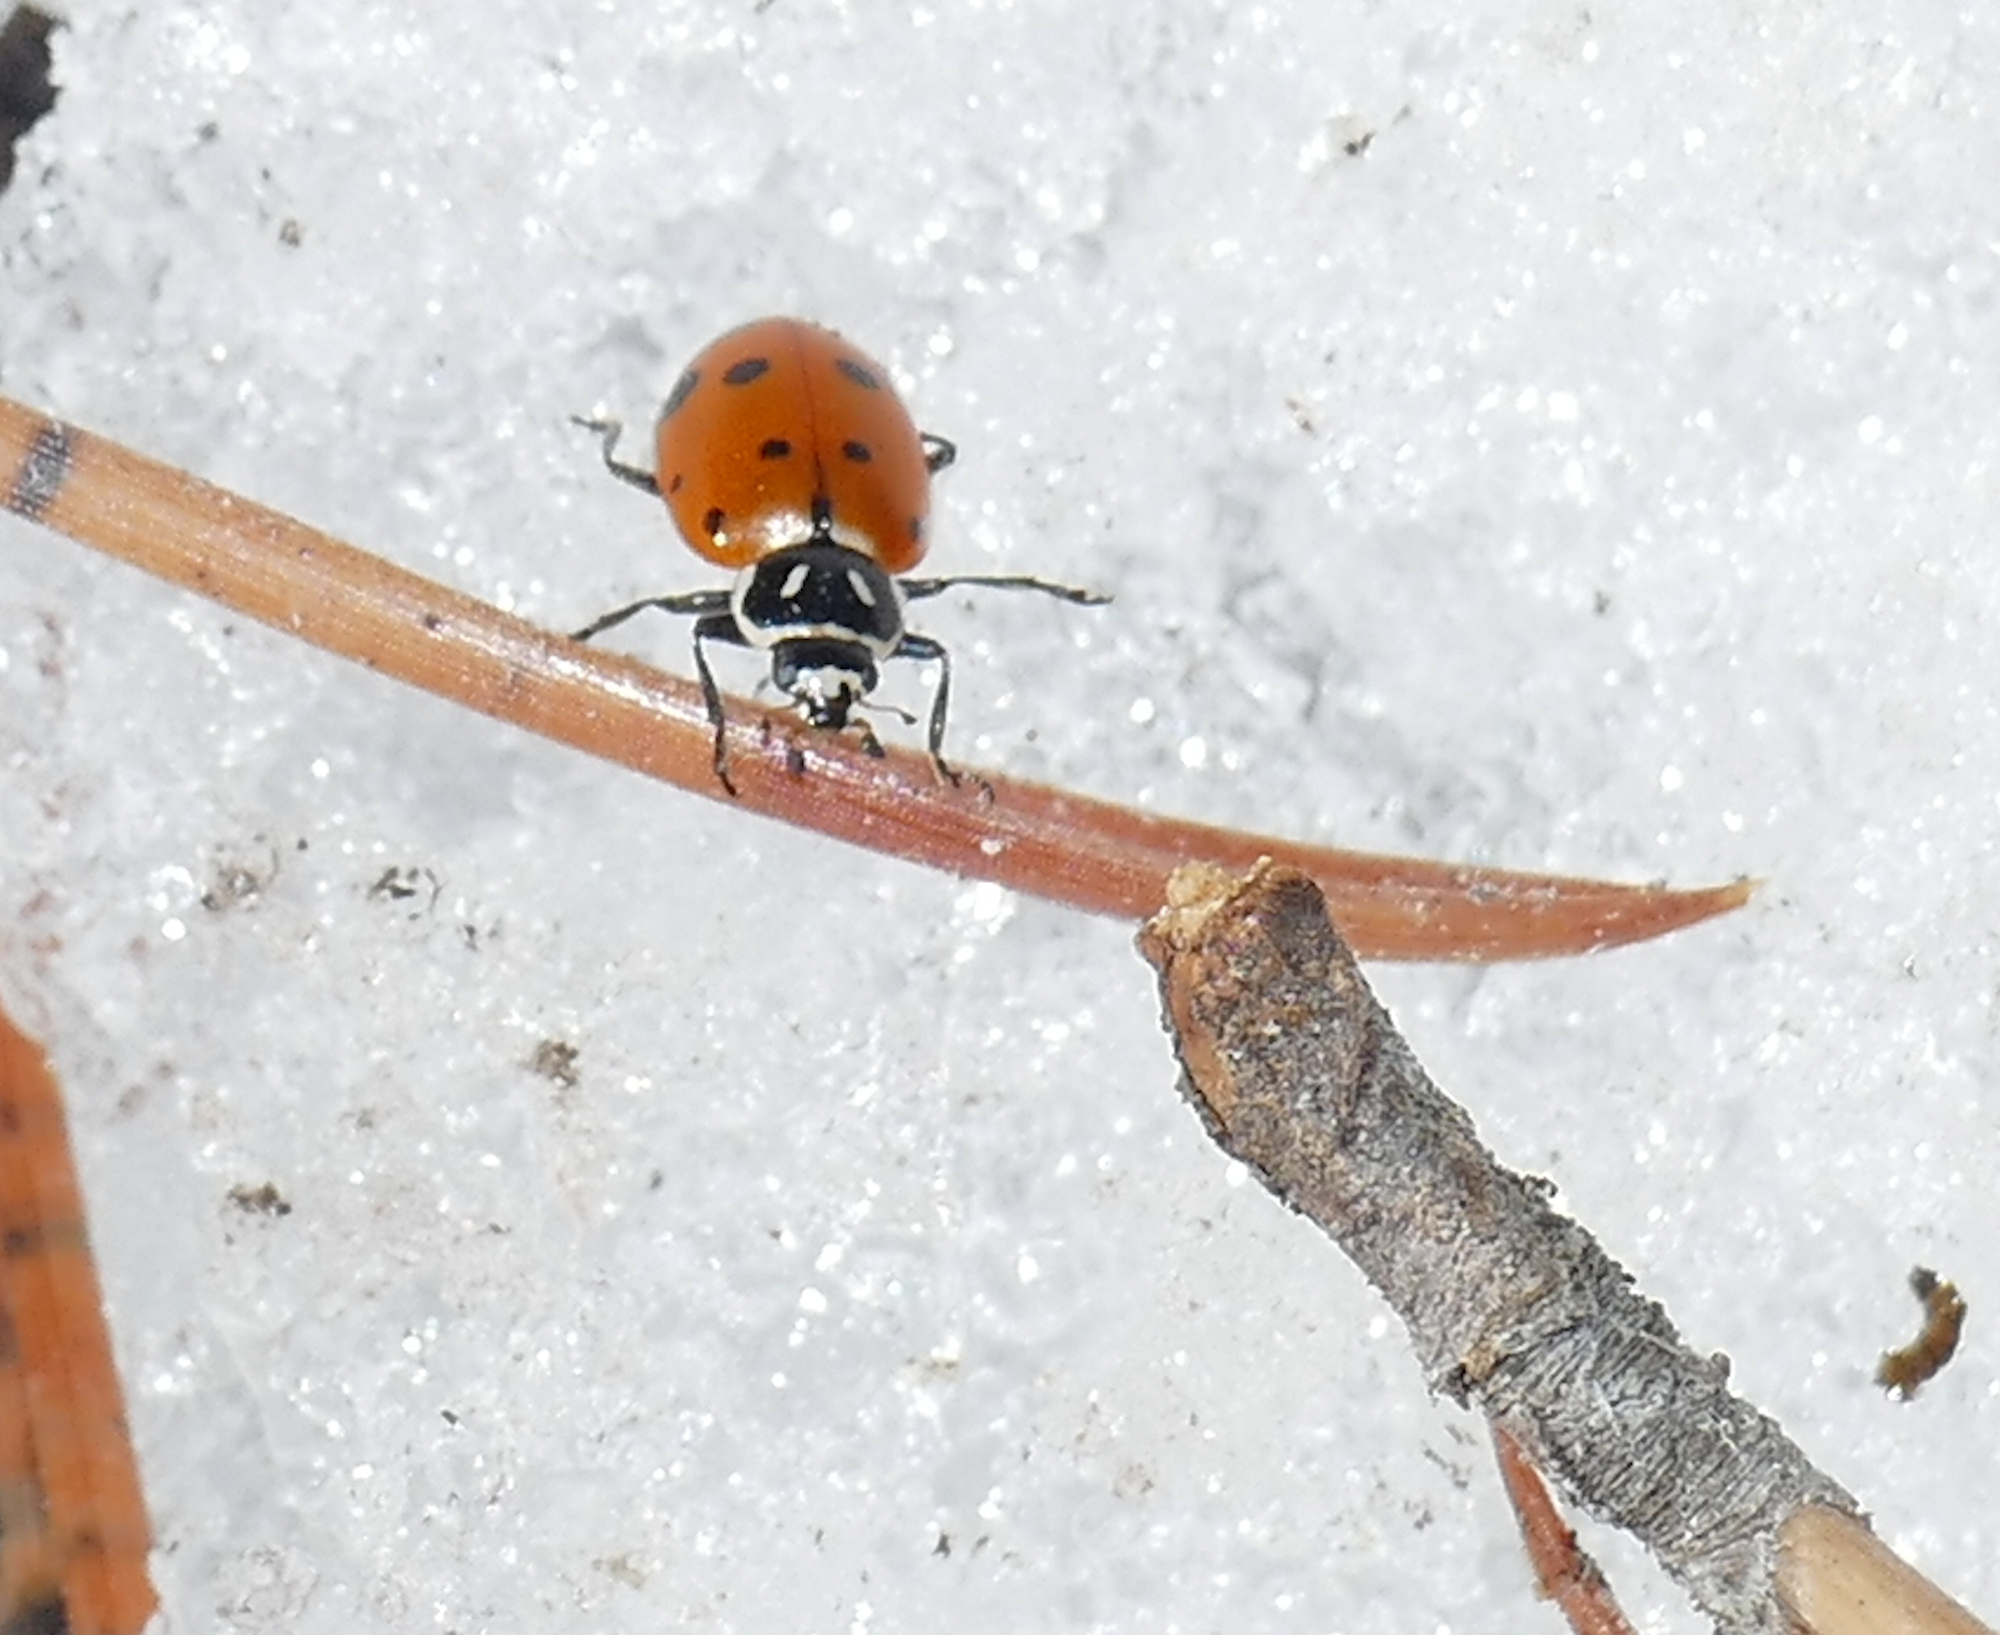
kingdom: Animalia
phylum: Arthropoda
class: Insecta
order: Coleoptera
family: Coccinellidae
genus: Hippodamia
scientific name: Hippodamia convergens
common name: Convergent lady beetle
